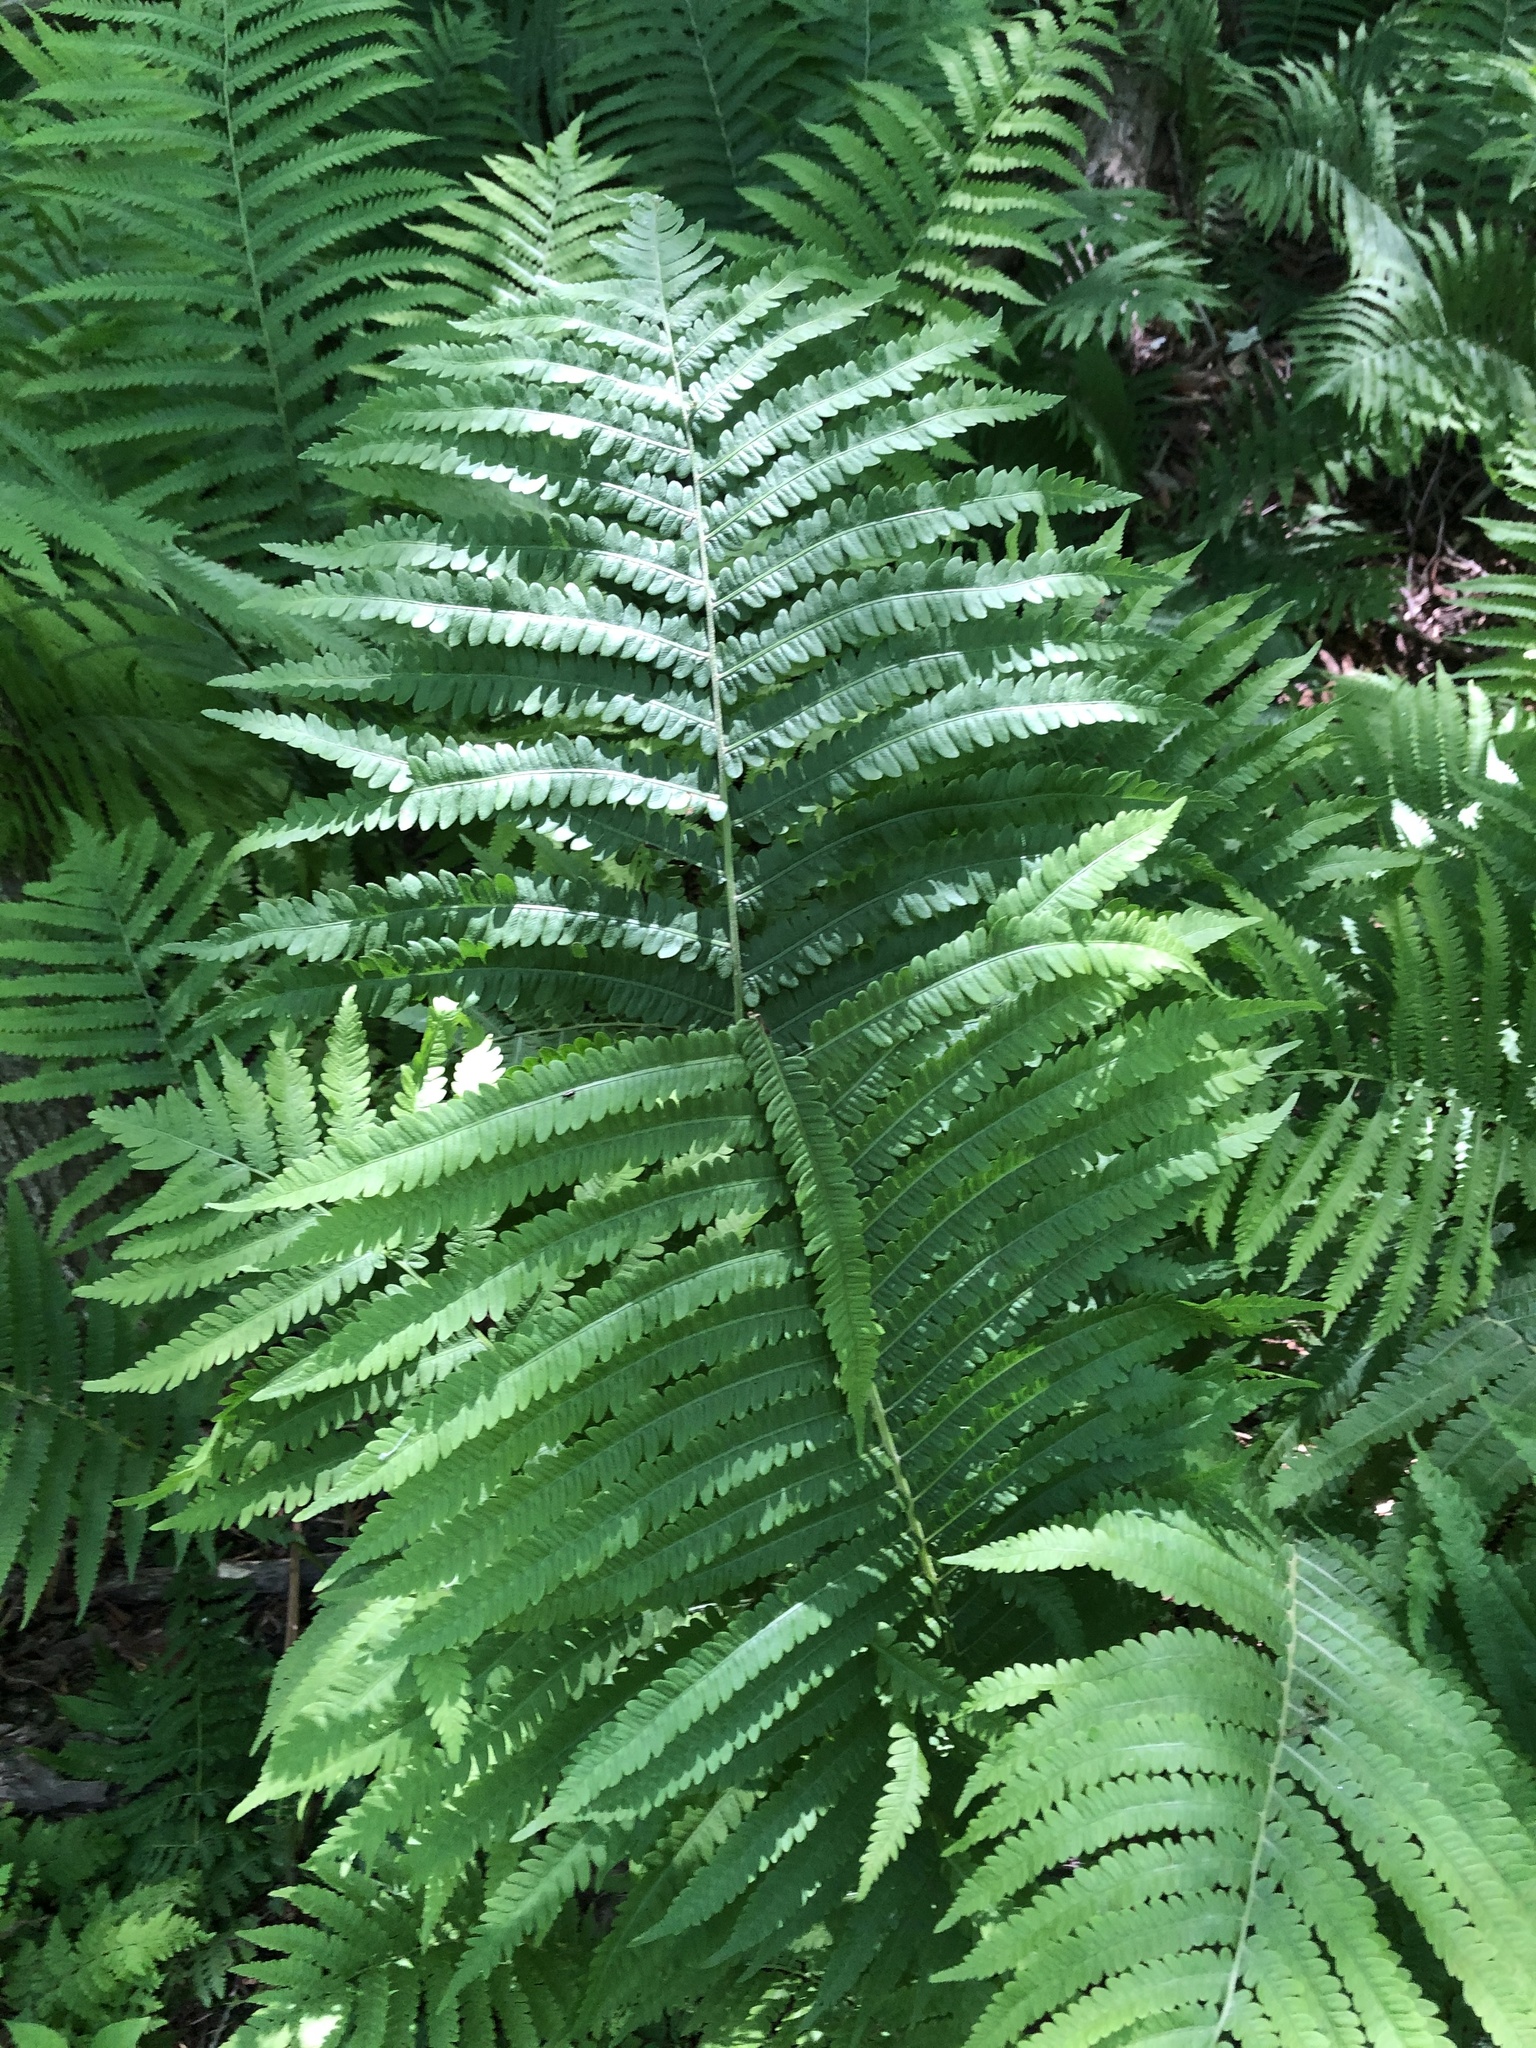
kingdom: Plantae
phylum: Tracheophyta
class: Polypodiopsida
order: Polypodiales
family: Onocleaceae
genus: Matteuccia
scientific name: Matteuccia struthiopteris
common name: Ostrich fern
